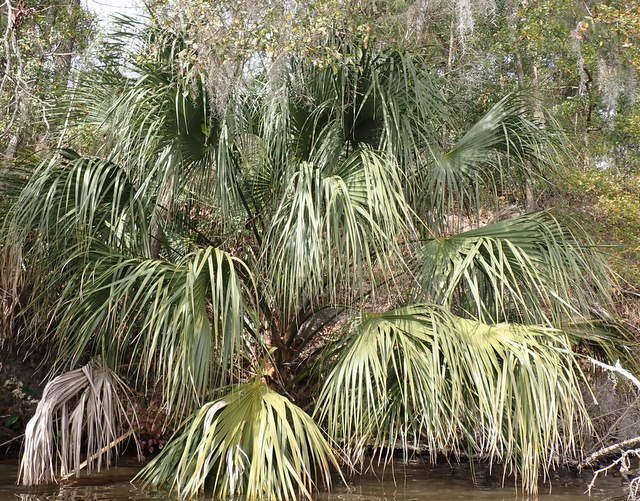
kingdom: Plantae
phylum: Tracheophyta
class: Liliopsida
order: Arecales
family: Arecaceae
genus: Sabal
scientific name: Sabal palmetto
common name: Blue palmetto
